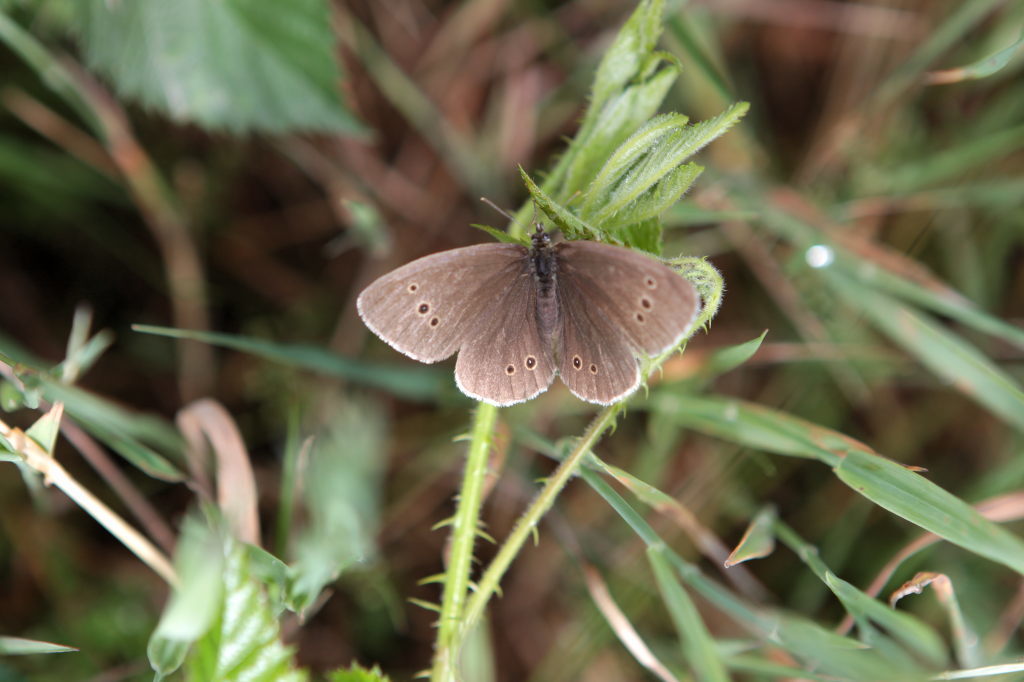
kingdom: Animalia
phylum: Arthropoda
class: Insecta
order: Lepidoptera
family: Nymphalidae
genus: Aphantopus
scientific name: Aphantopus hyperantus
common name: Ringlet
